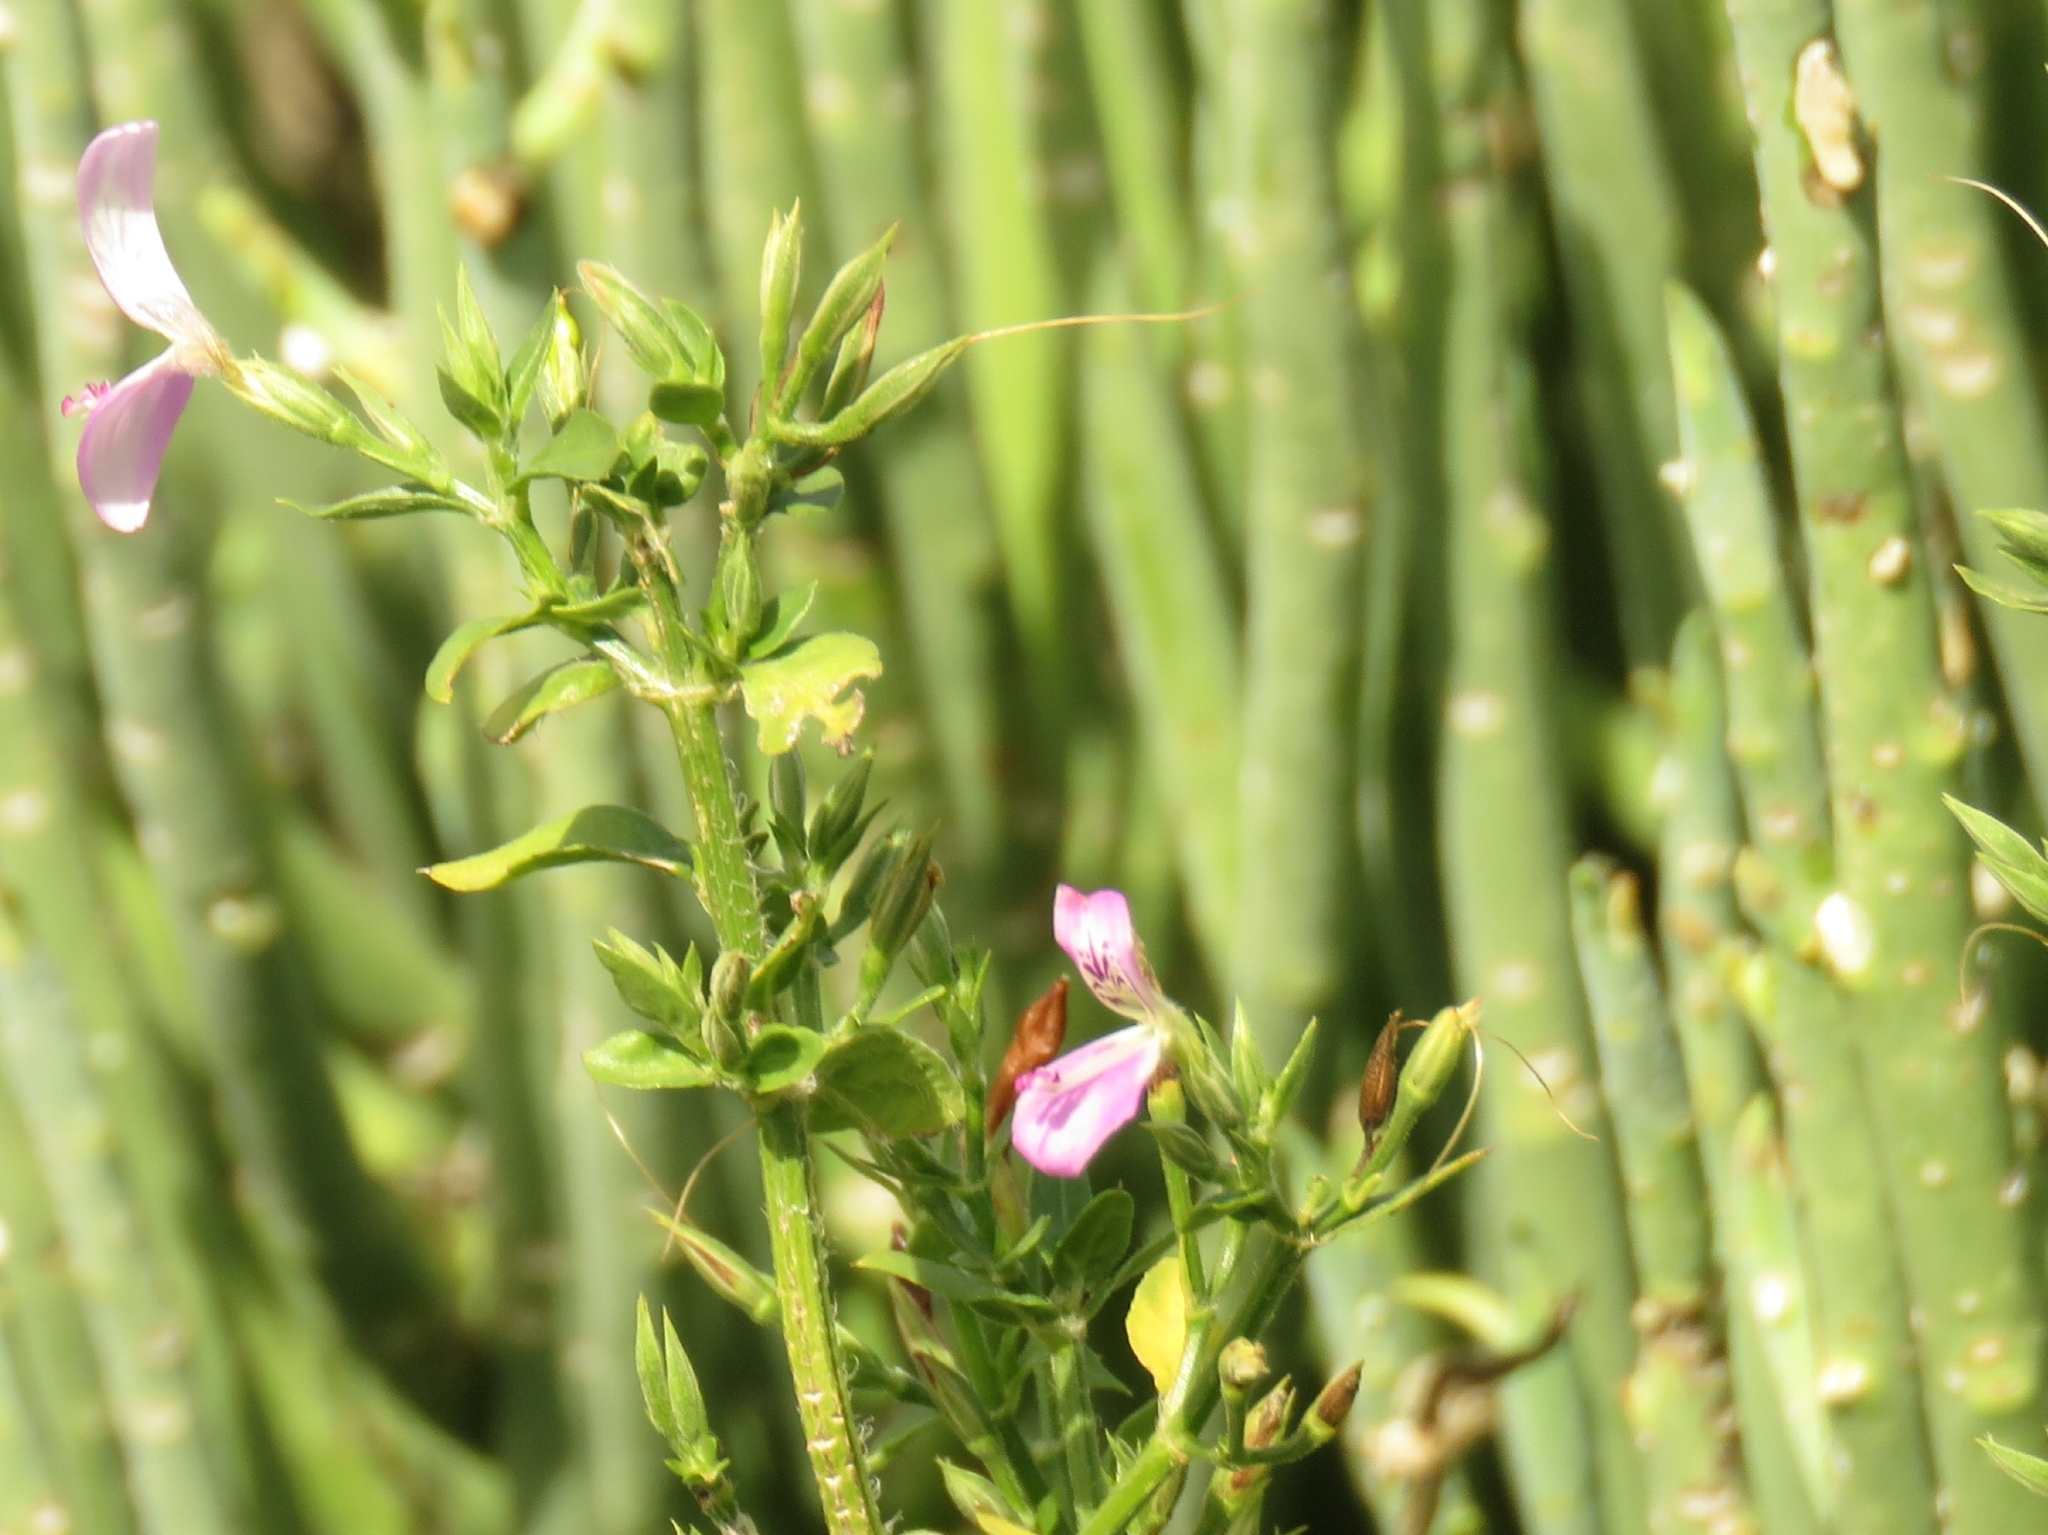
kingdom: Plantae
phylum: Tracheophyta
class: Magnoliopsida
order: Lamiales
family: Acanthaceae
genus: Dicliptera
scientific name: Dicliptera cernua
